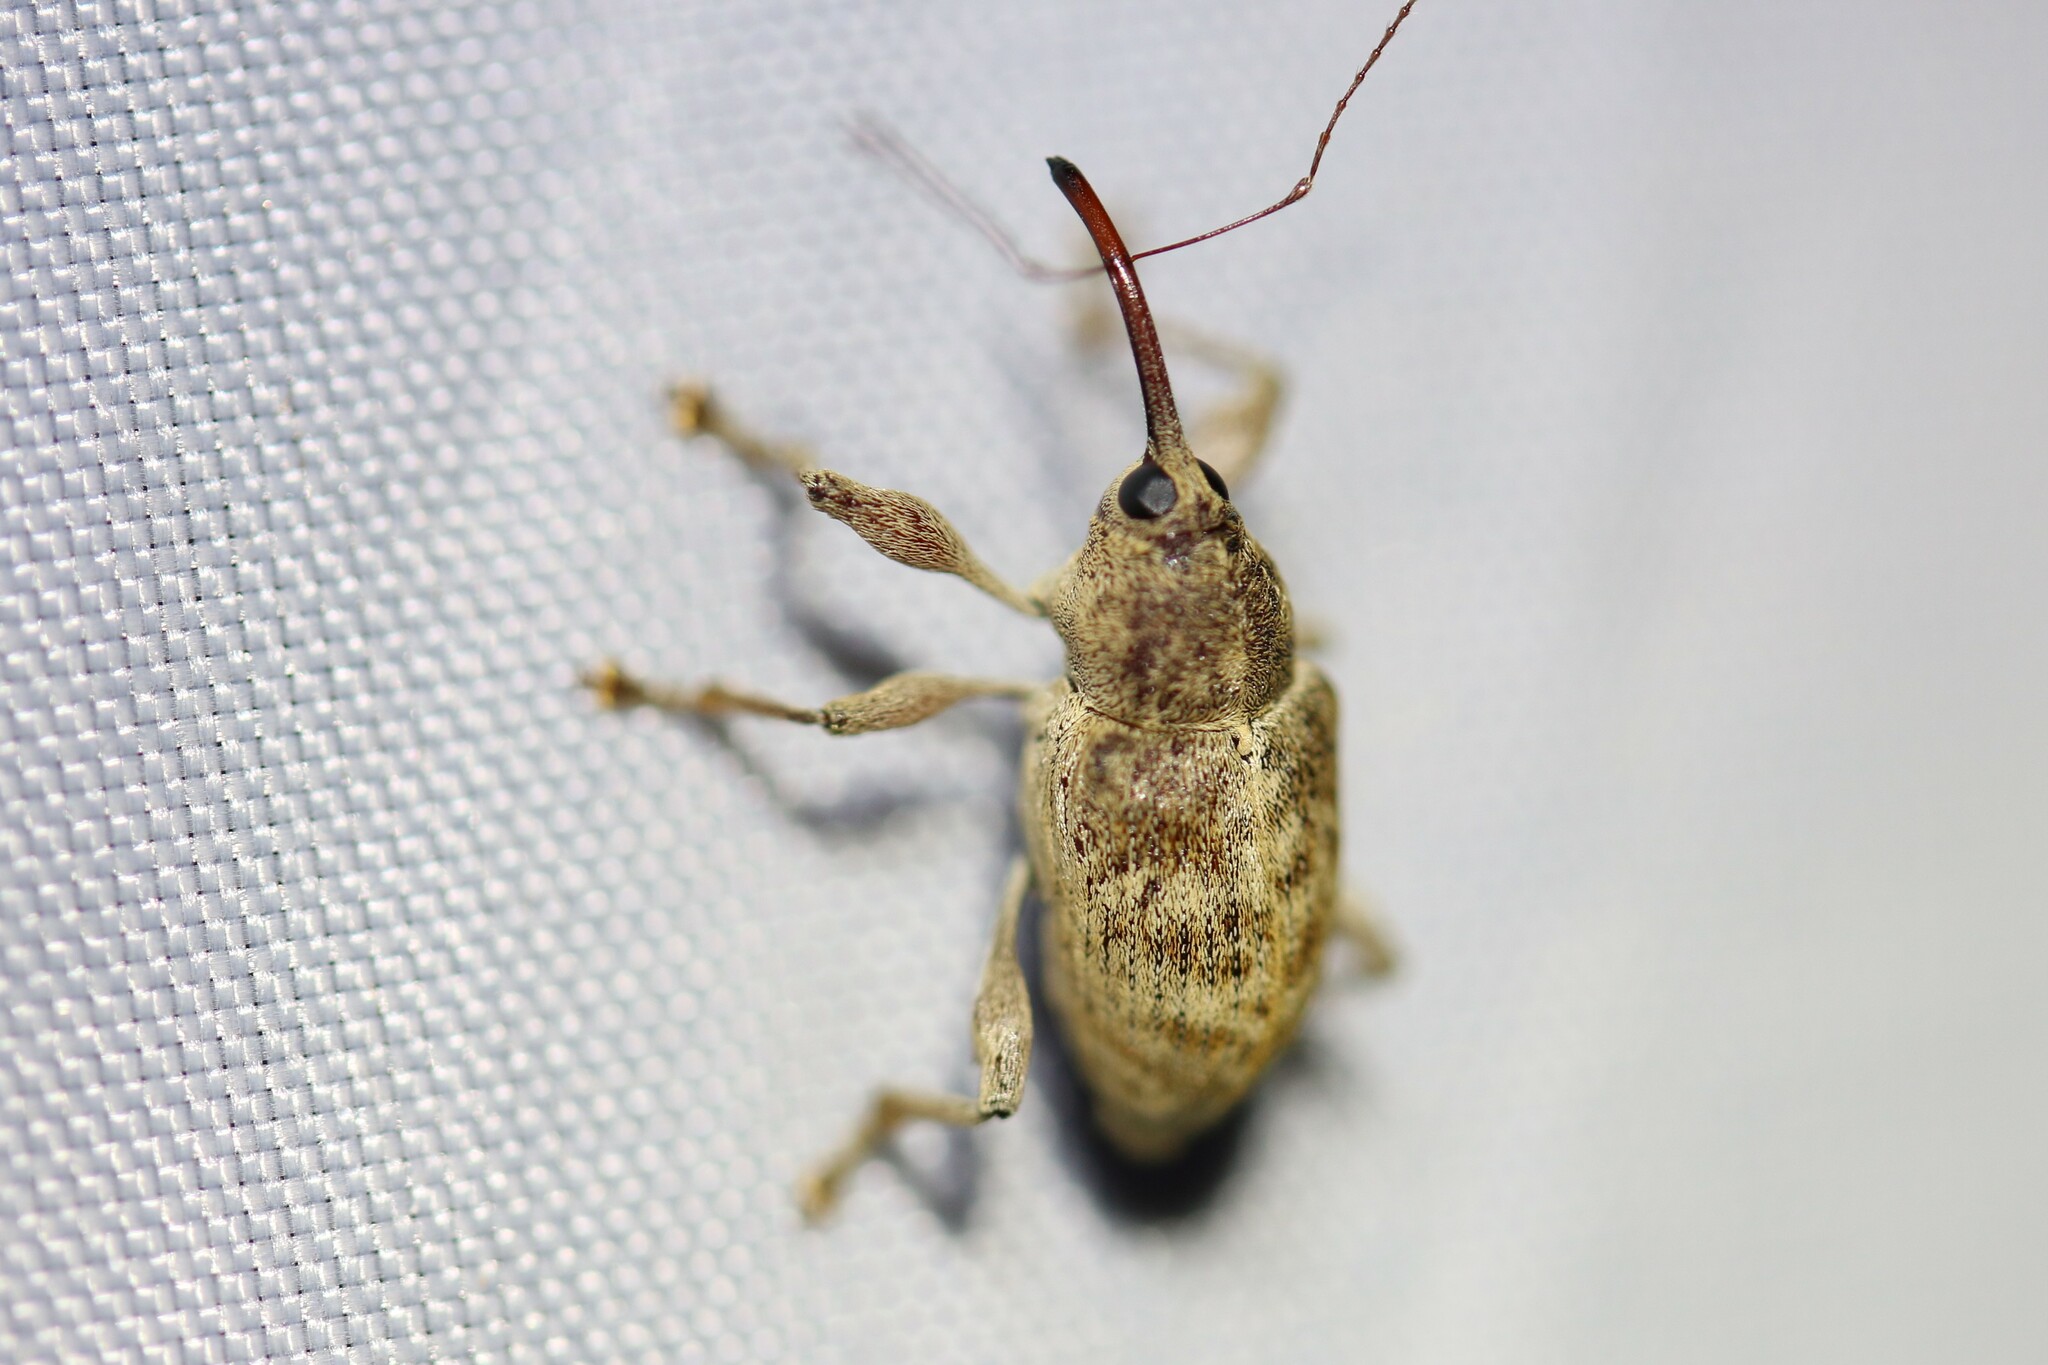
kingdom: Animalia
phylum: Arthropoda
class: Insecta
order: Coleoptera
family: Curculionidae
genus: Curculio
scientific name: Curculio elephas
